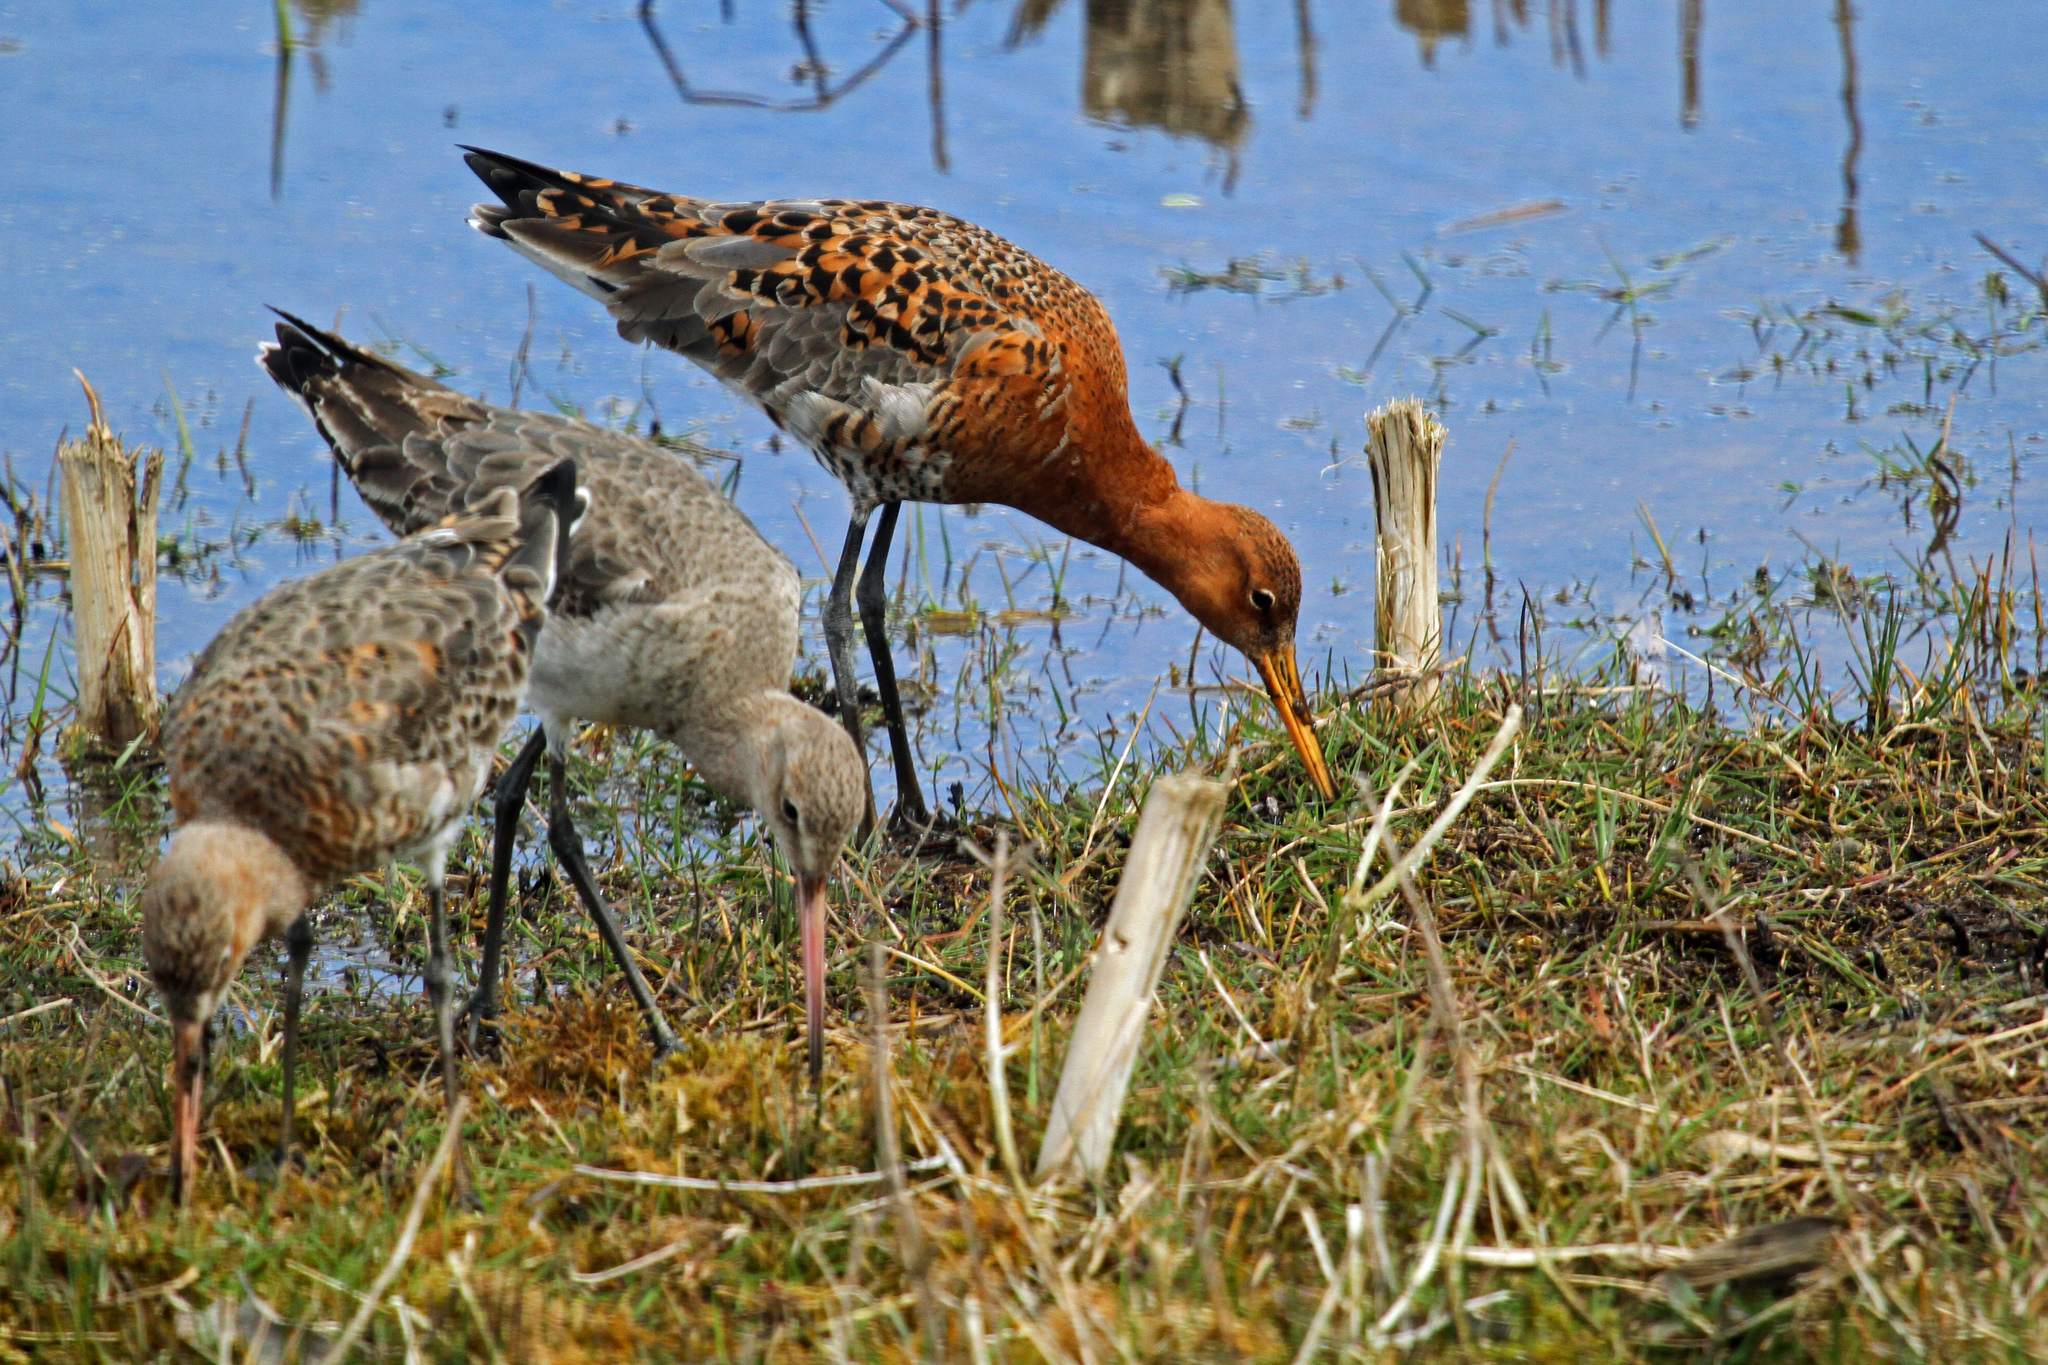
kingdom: Animalia
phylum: Chordata
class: Aves
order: Charadriiformes
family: Scolopacidae
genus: Limosa
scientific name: Limosa limosa
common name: Black-tailed godwit
